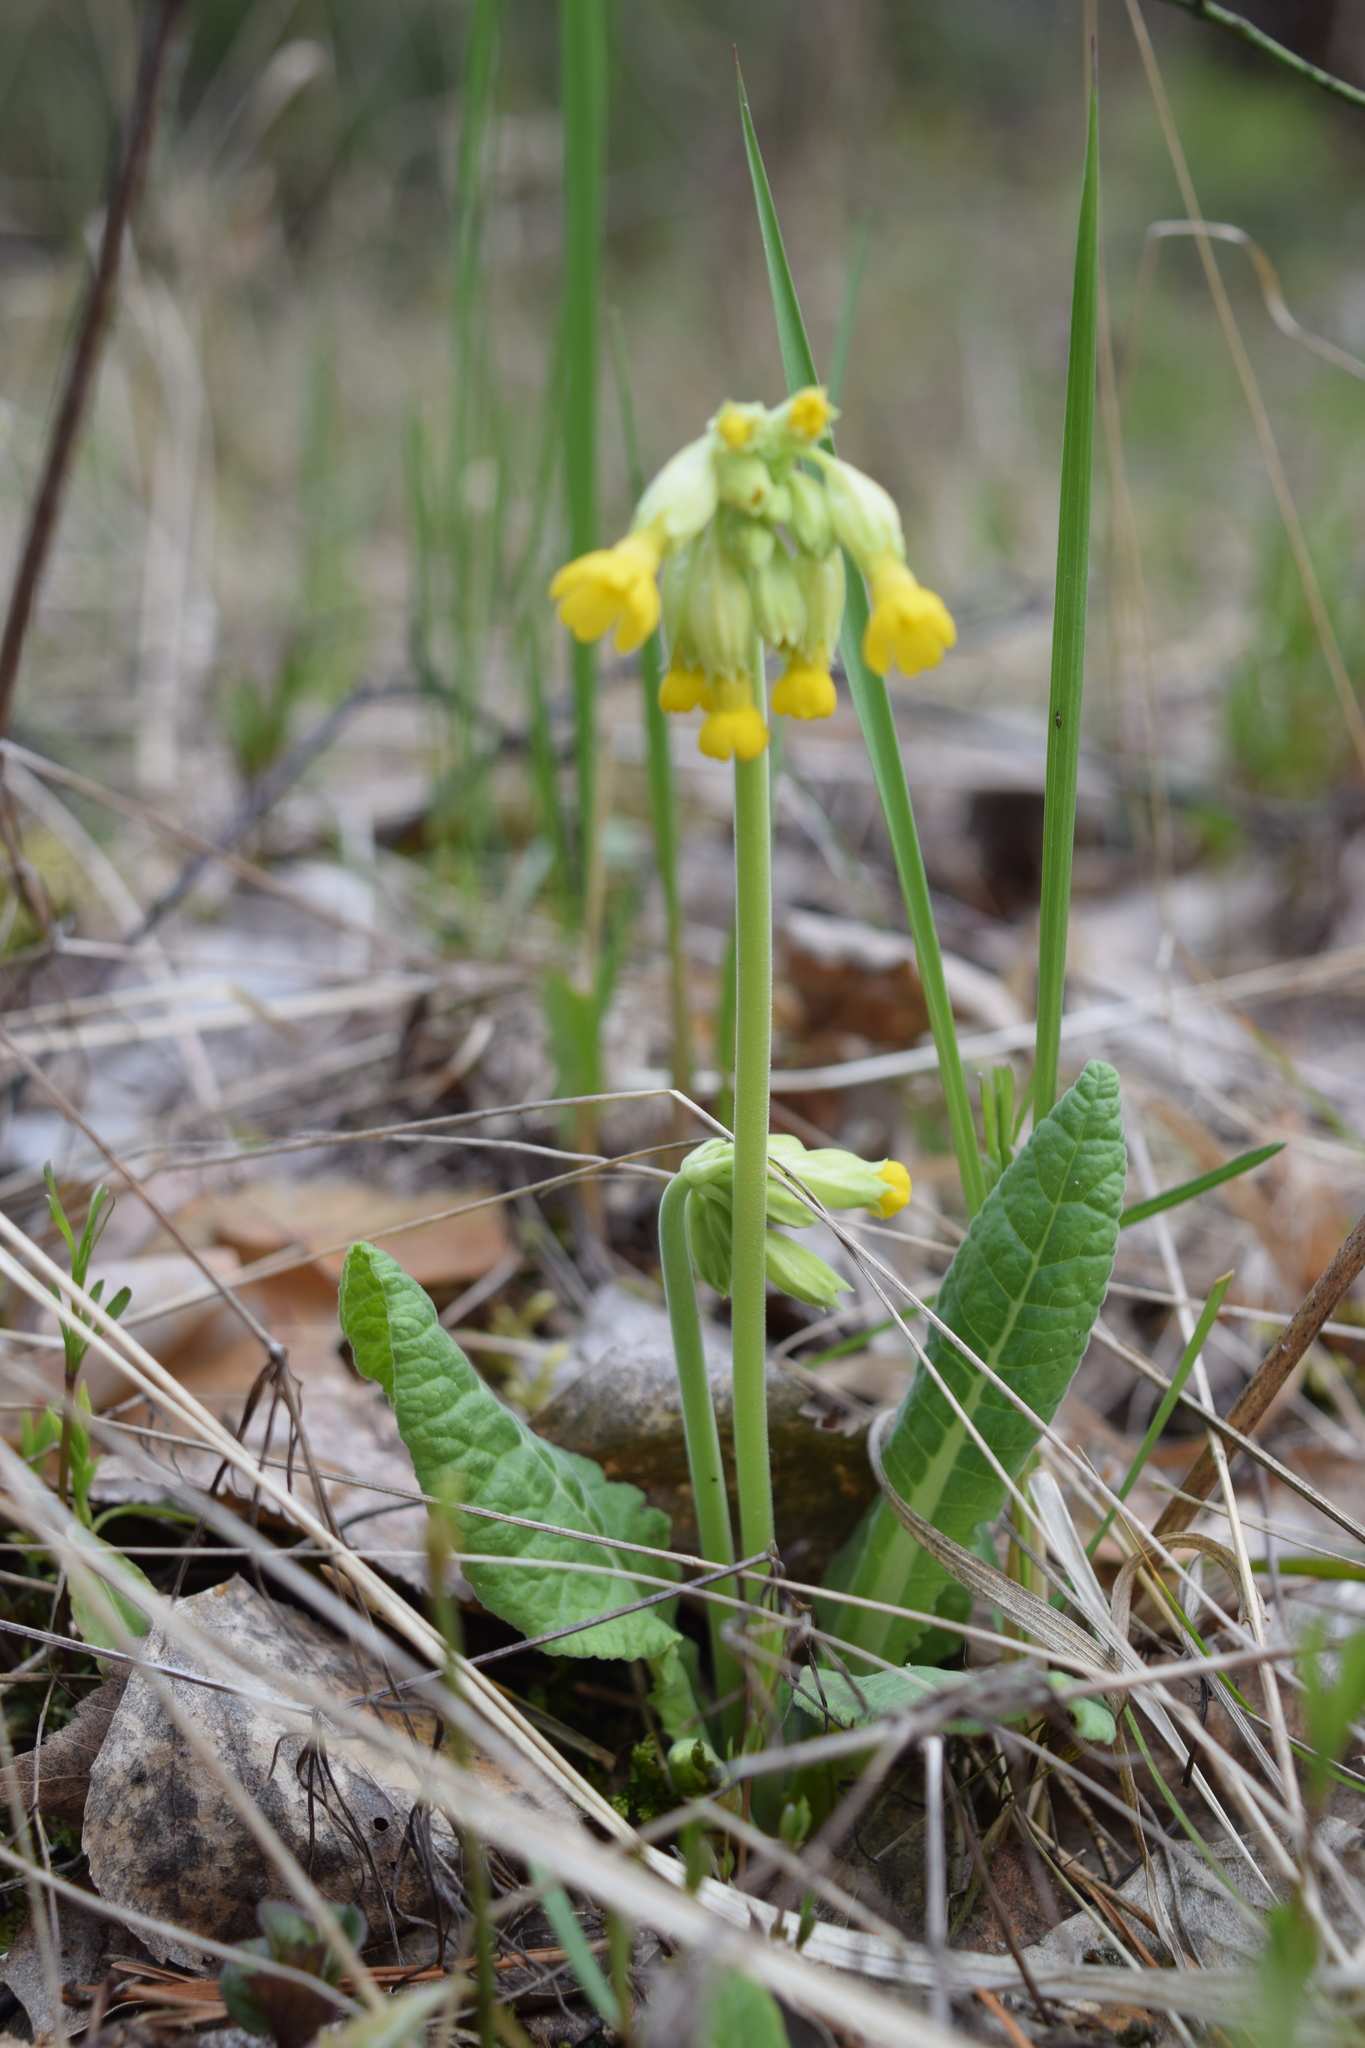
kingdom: Plantae
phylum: Tracheophyta
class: Magnoliopsida
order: Ericales
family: Primulaceae
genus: Primula
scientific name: Primula veris
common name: Cowslip
